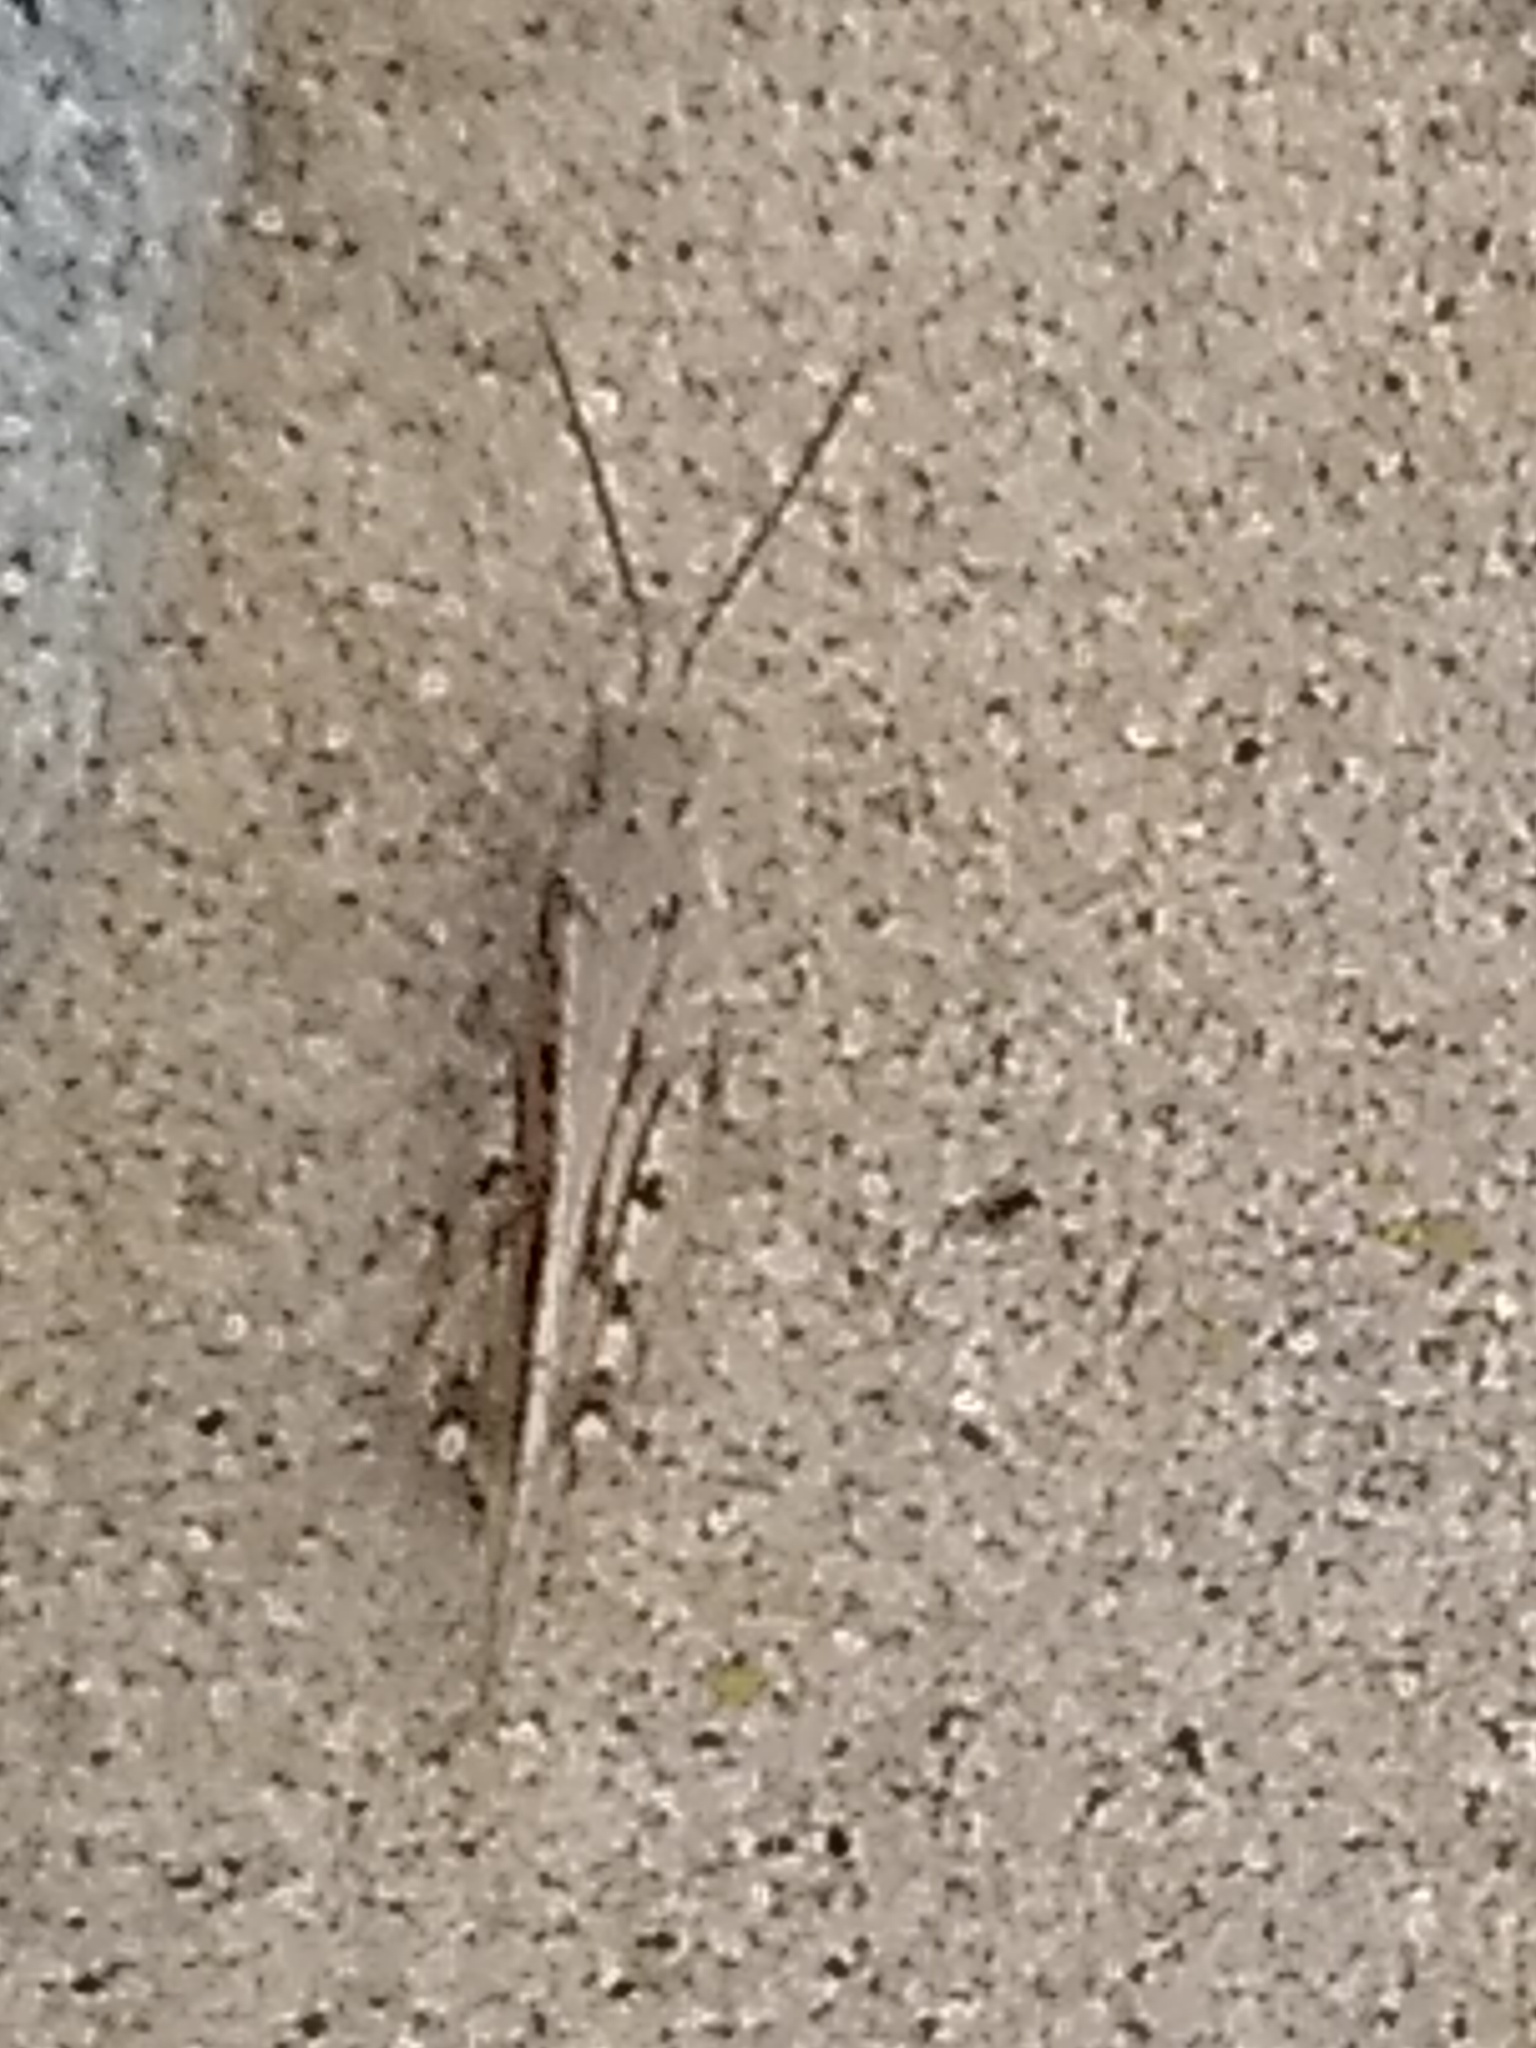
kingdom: Animalia
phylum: Arthropoda
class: Insecta
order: Orthoptera
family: Acrididae
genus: Trimerotropis
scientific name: Trimerotropis maritima
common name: Seaside locust
